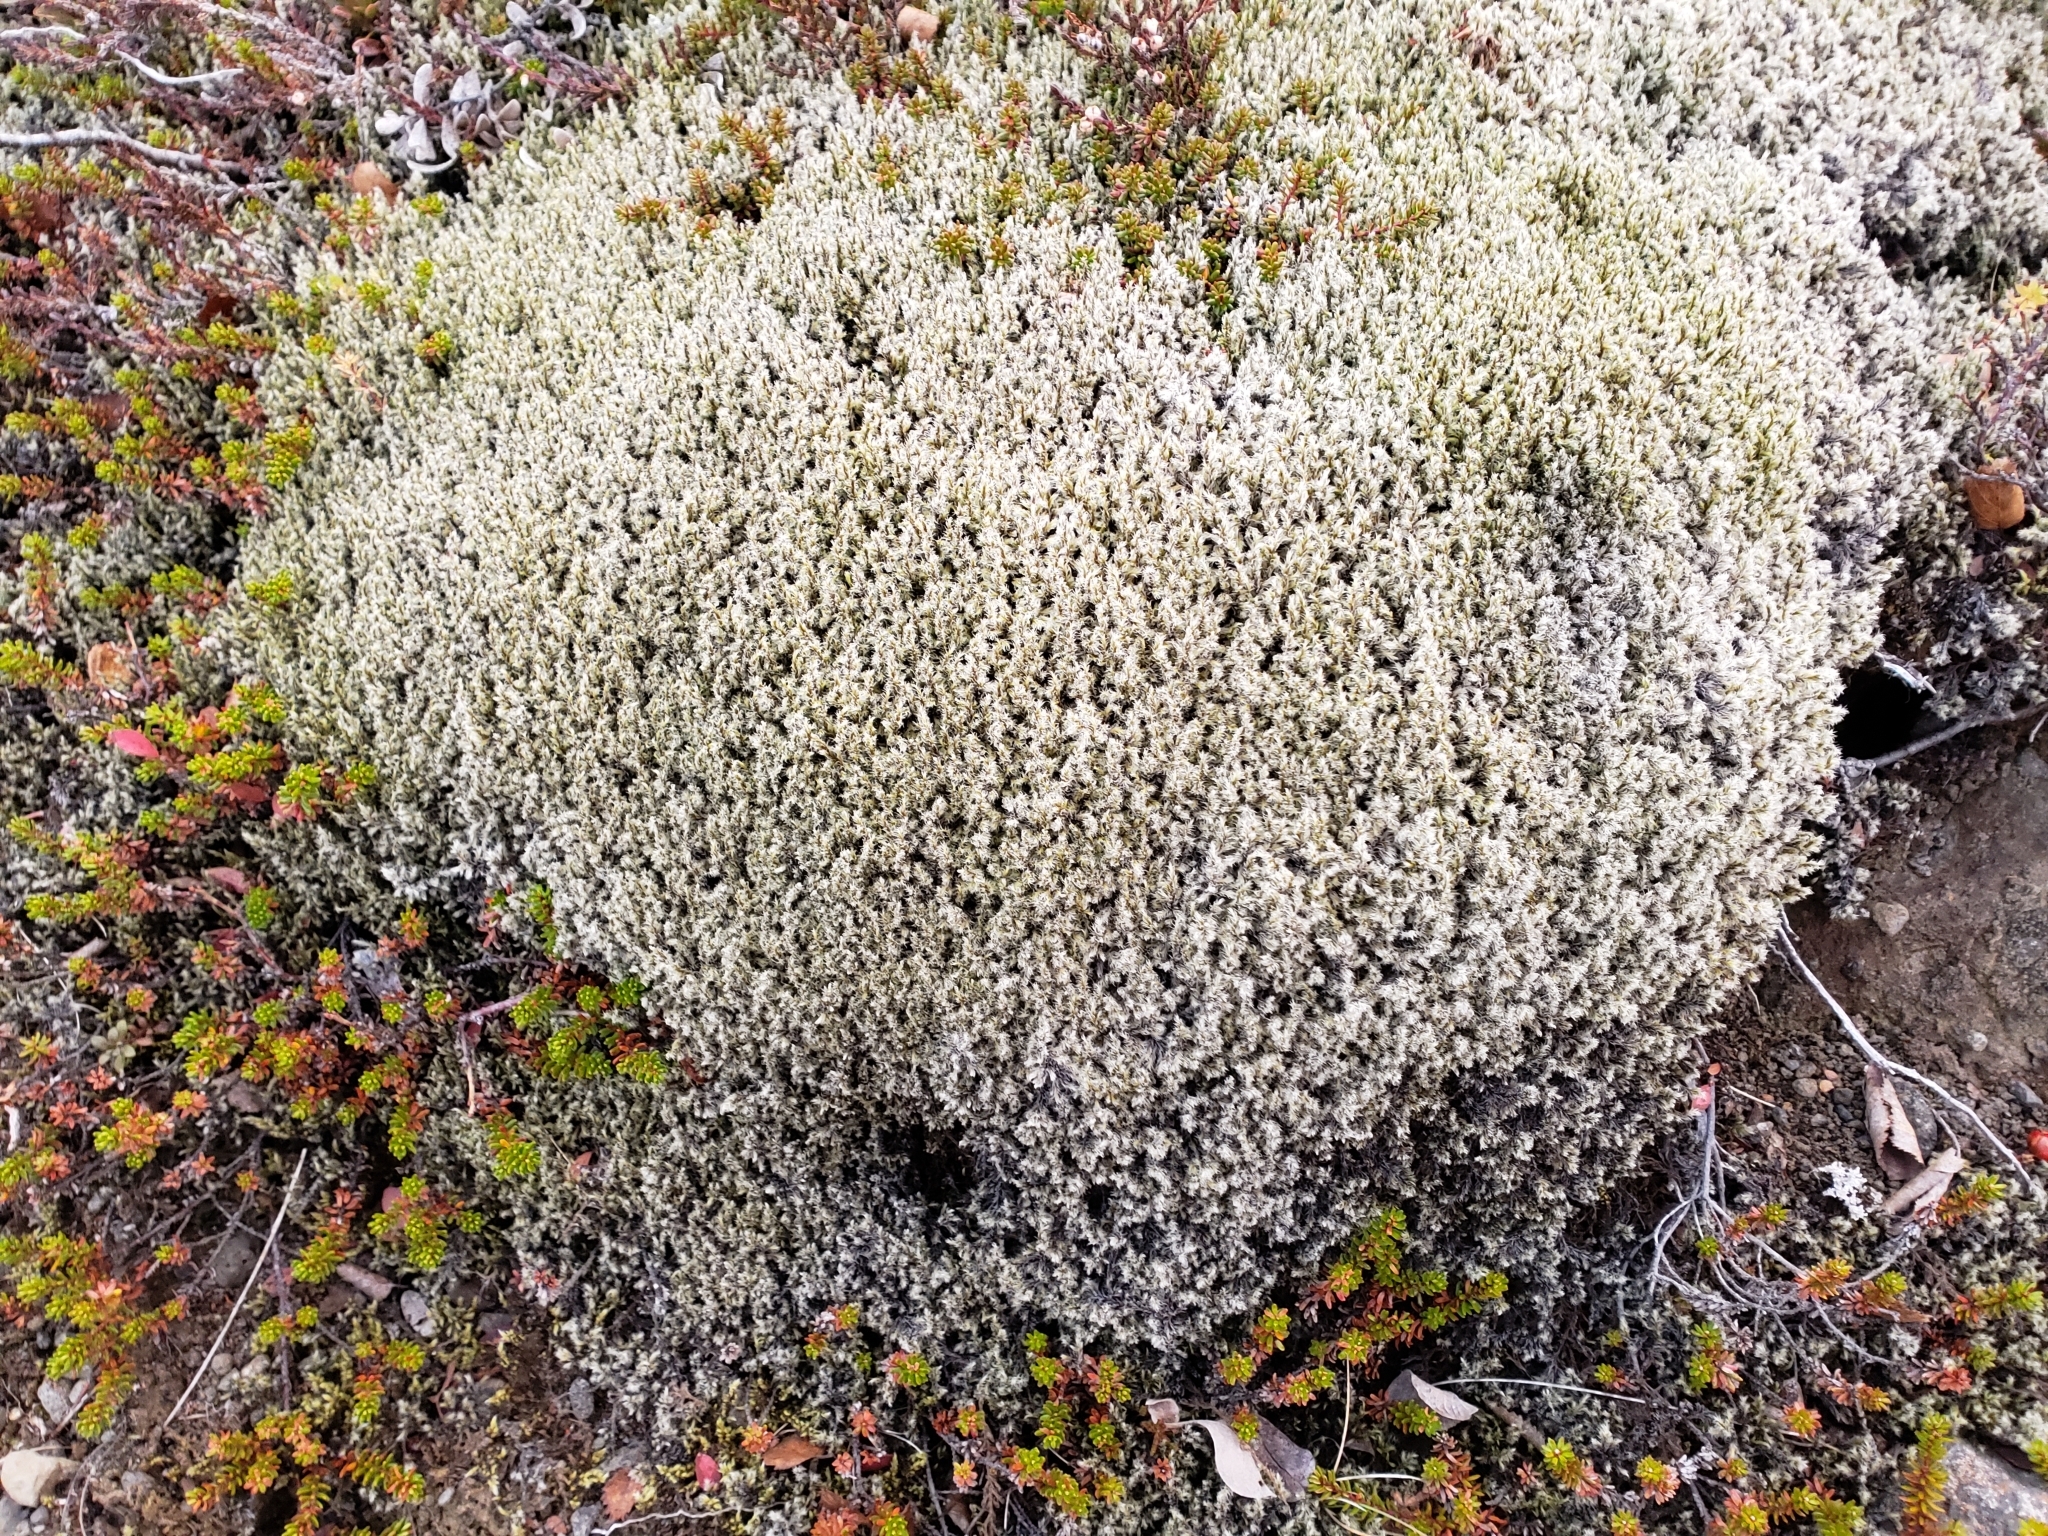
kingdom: Plantae
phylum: Bryophyta
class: Bryopsida
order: Grimmiales
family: Grimmiaceae
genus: Racomitrium
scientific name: Racomitrium lanuginosum
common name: Hoary rock moss
